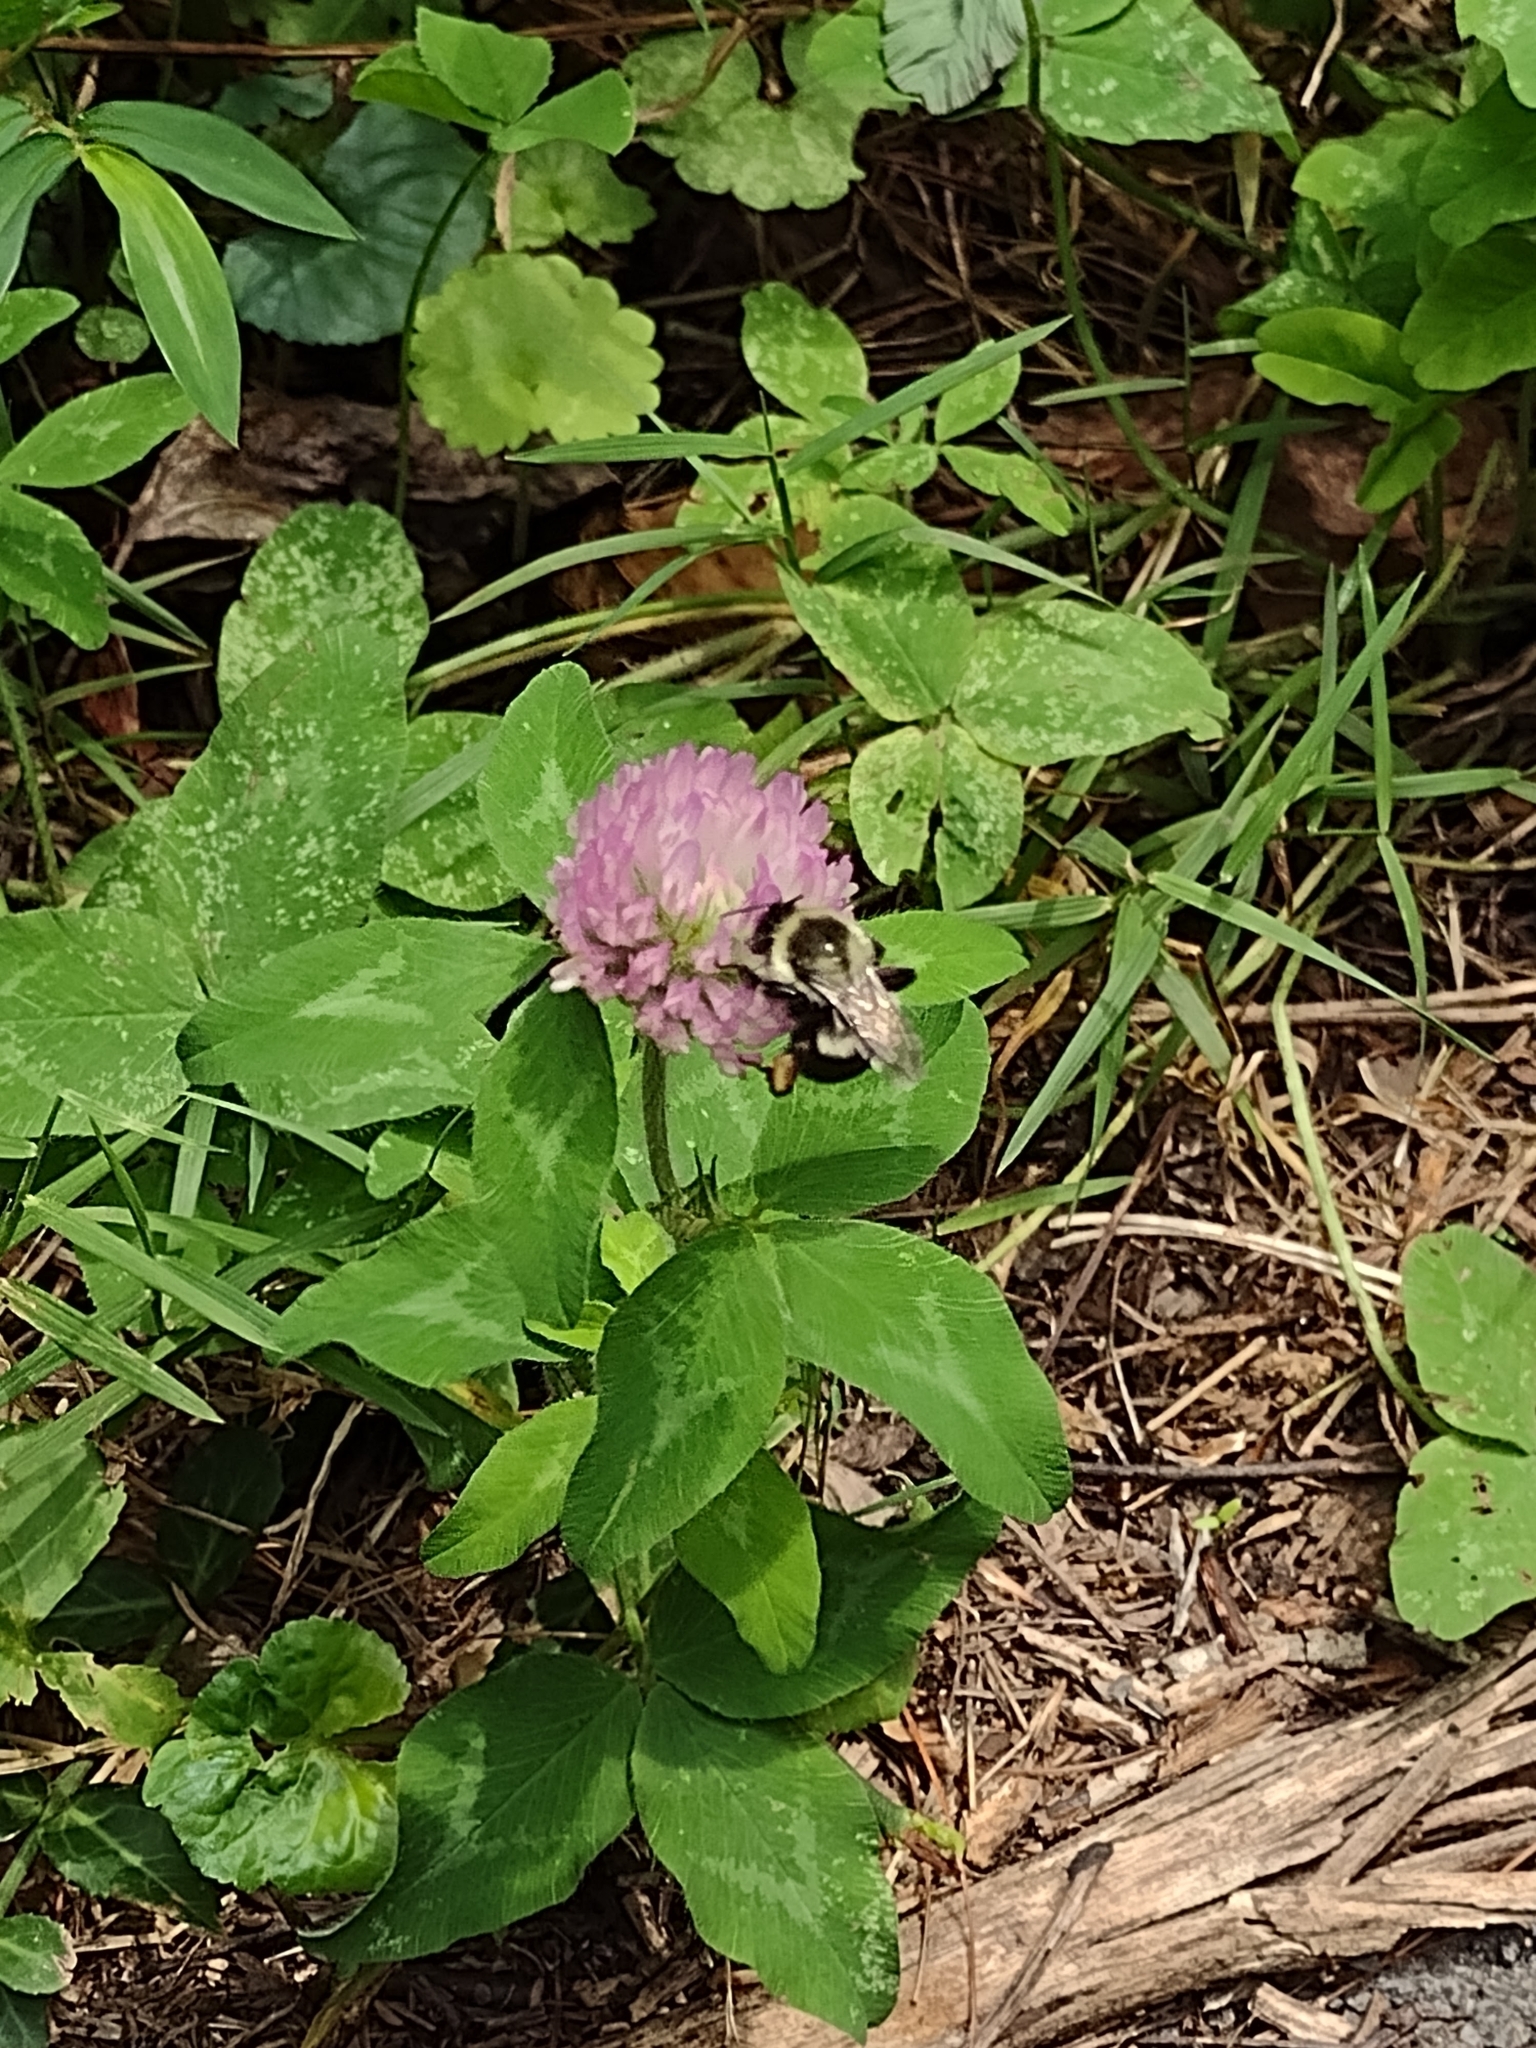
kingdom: Animalia
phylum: Arthropoda
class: Insecta
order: Hymenoptera
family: Apidae
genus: Bombus
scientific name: Bombus impatiens
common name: Common eastern bumble bee
